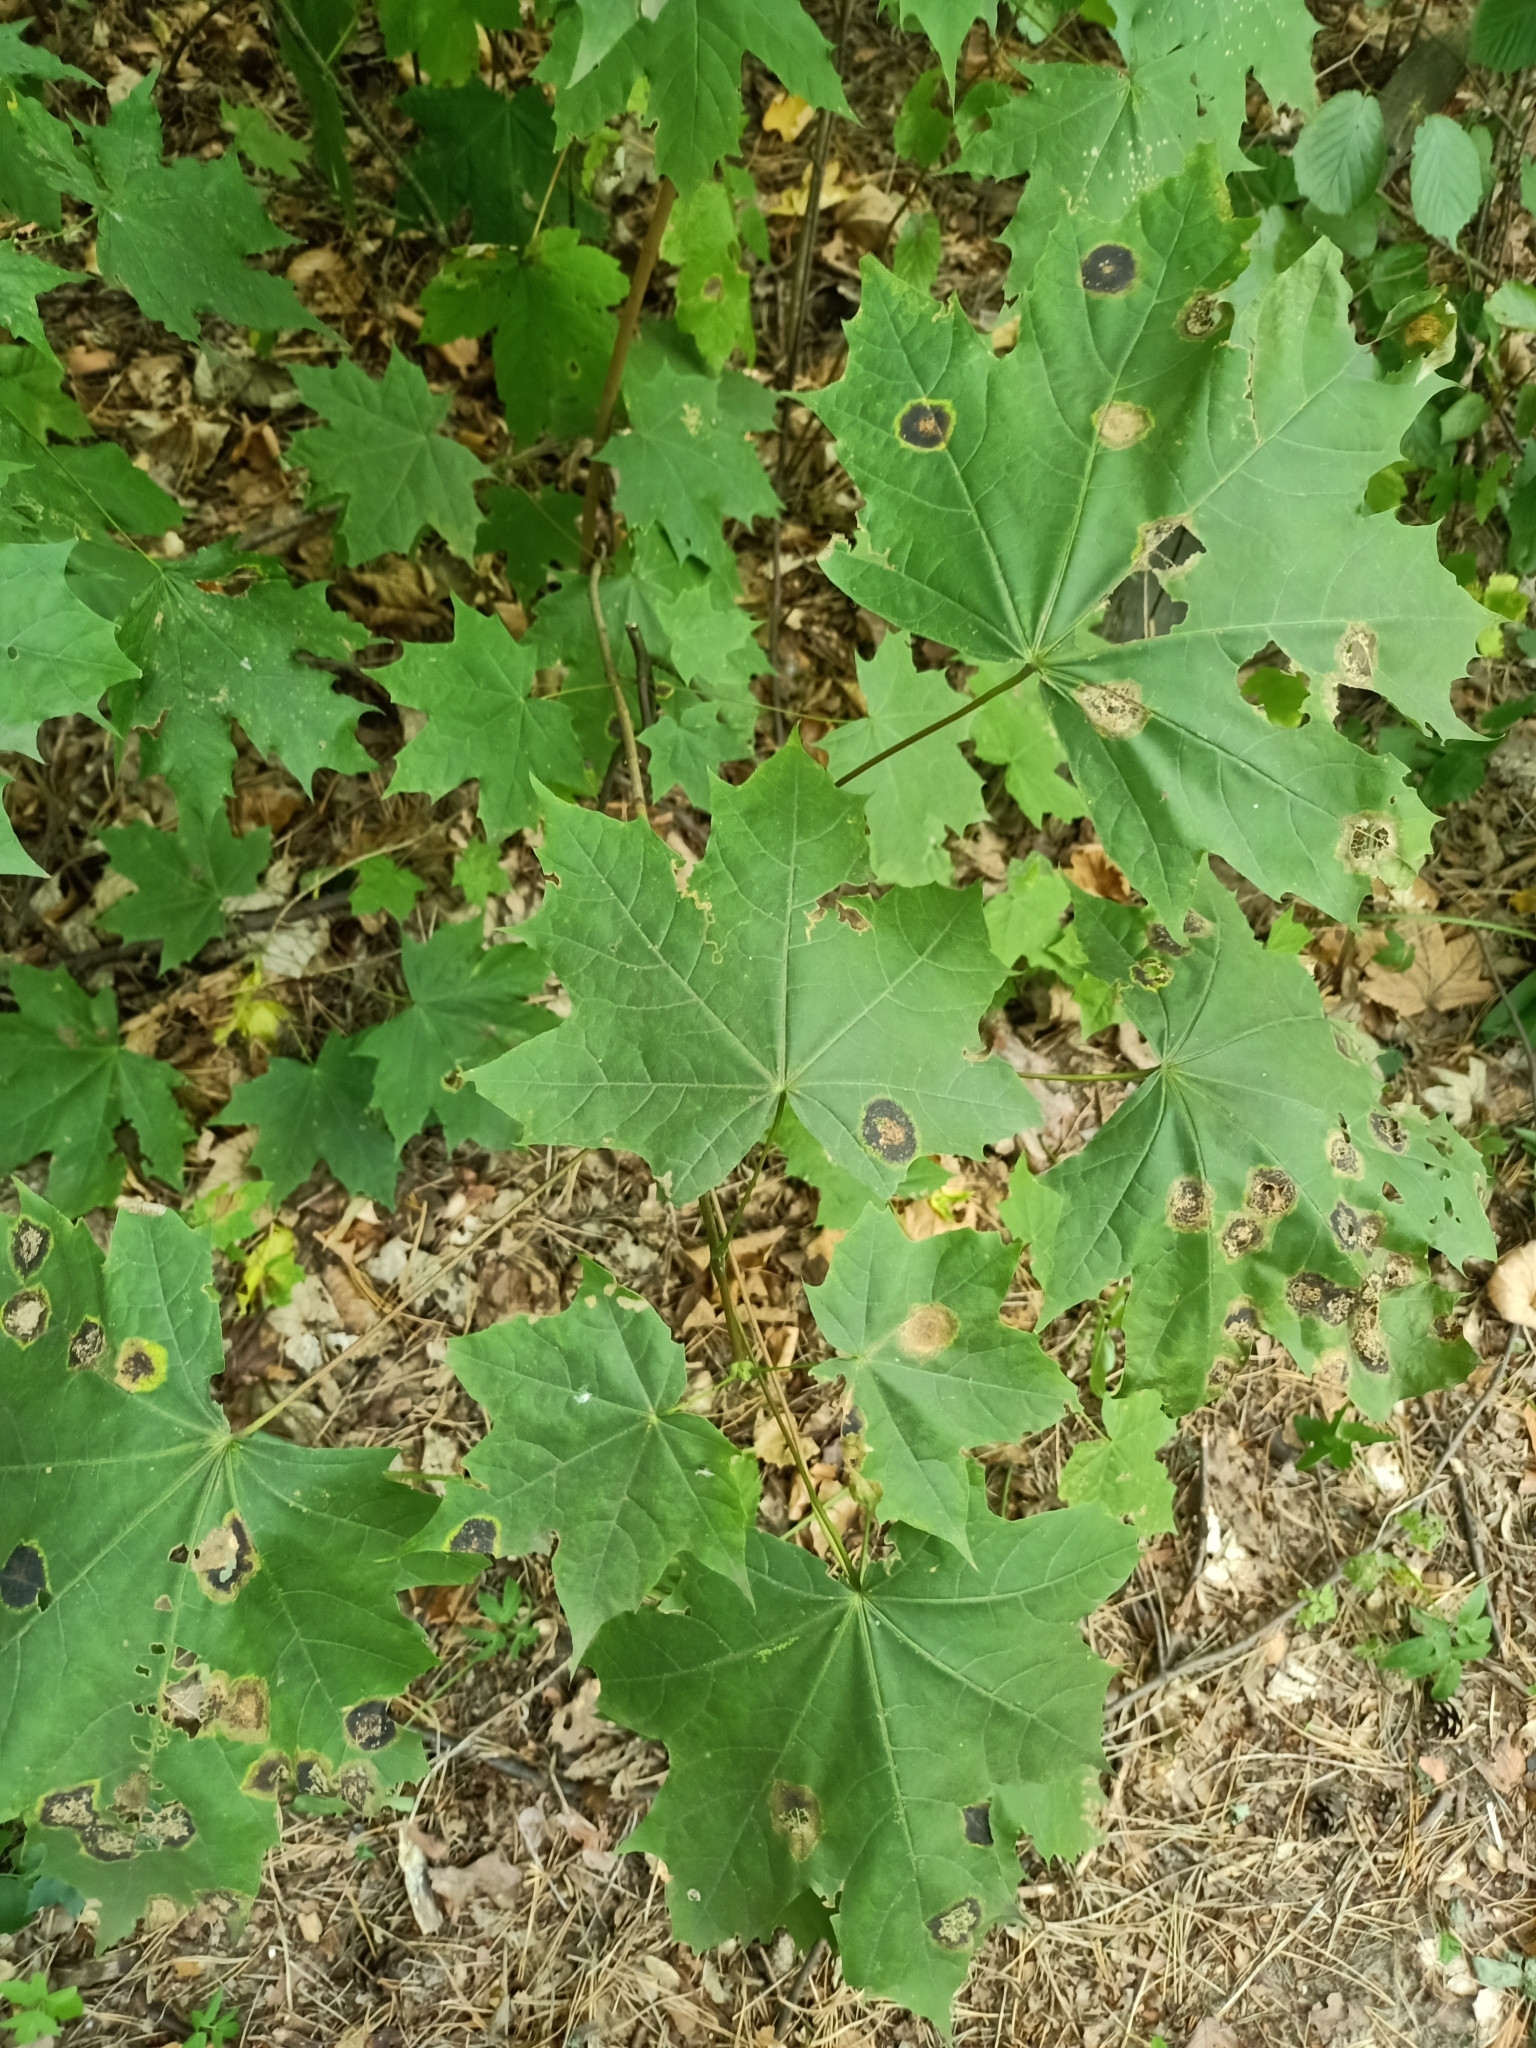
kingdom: Plantae
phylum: Tracheophyta
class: Magnoliopsida
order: Sapindales
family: Sapindaceae
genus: Acer
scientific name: Acer platanoides
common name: Norway maple
